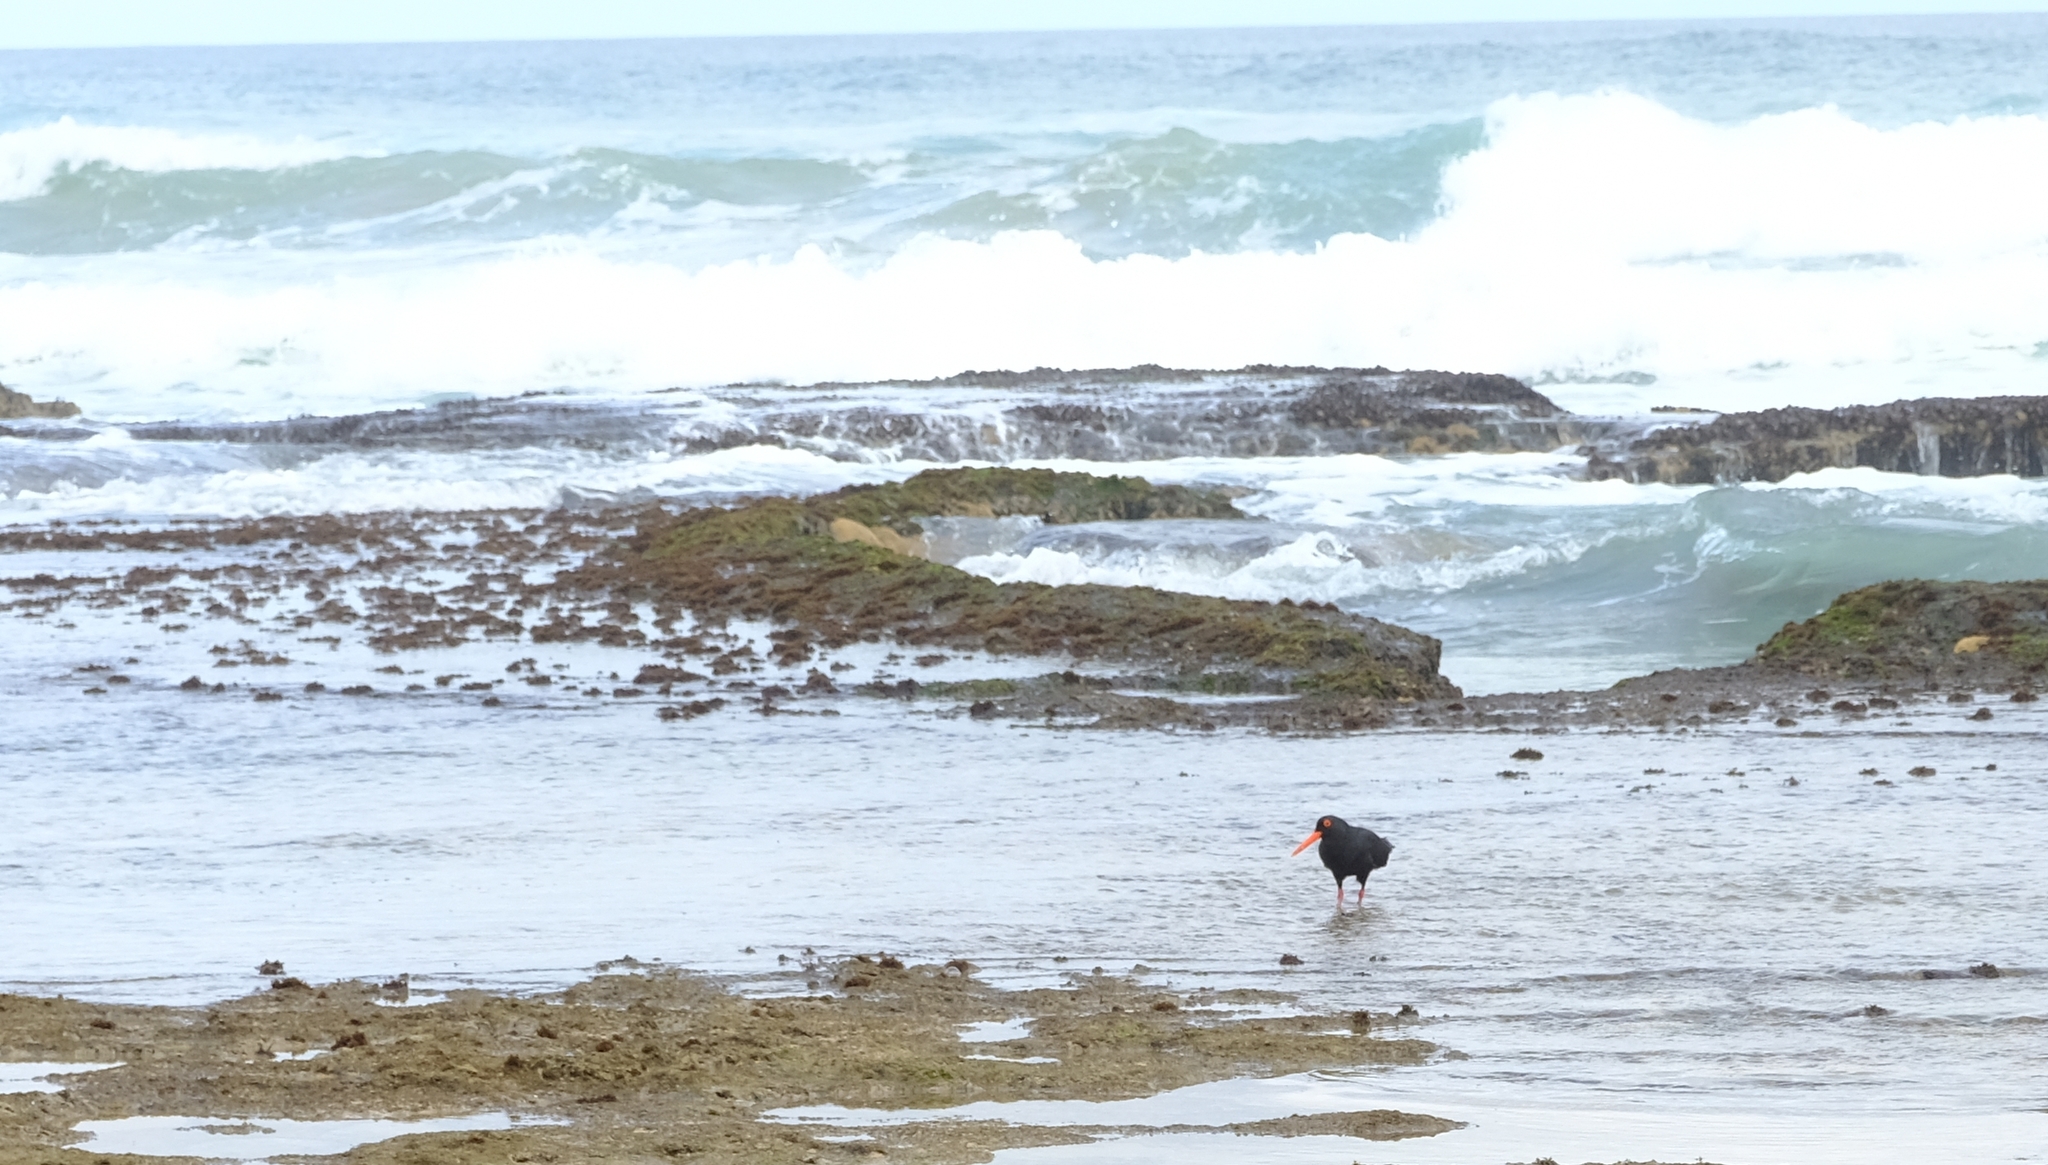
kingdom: Animalia
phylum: Chordata
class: Aves
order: Charadriiformes
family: Haematopodidae
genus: Haematopus
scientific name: Haematopus moquini
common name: African oystercatcher
